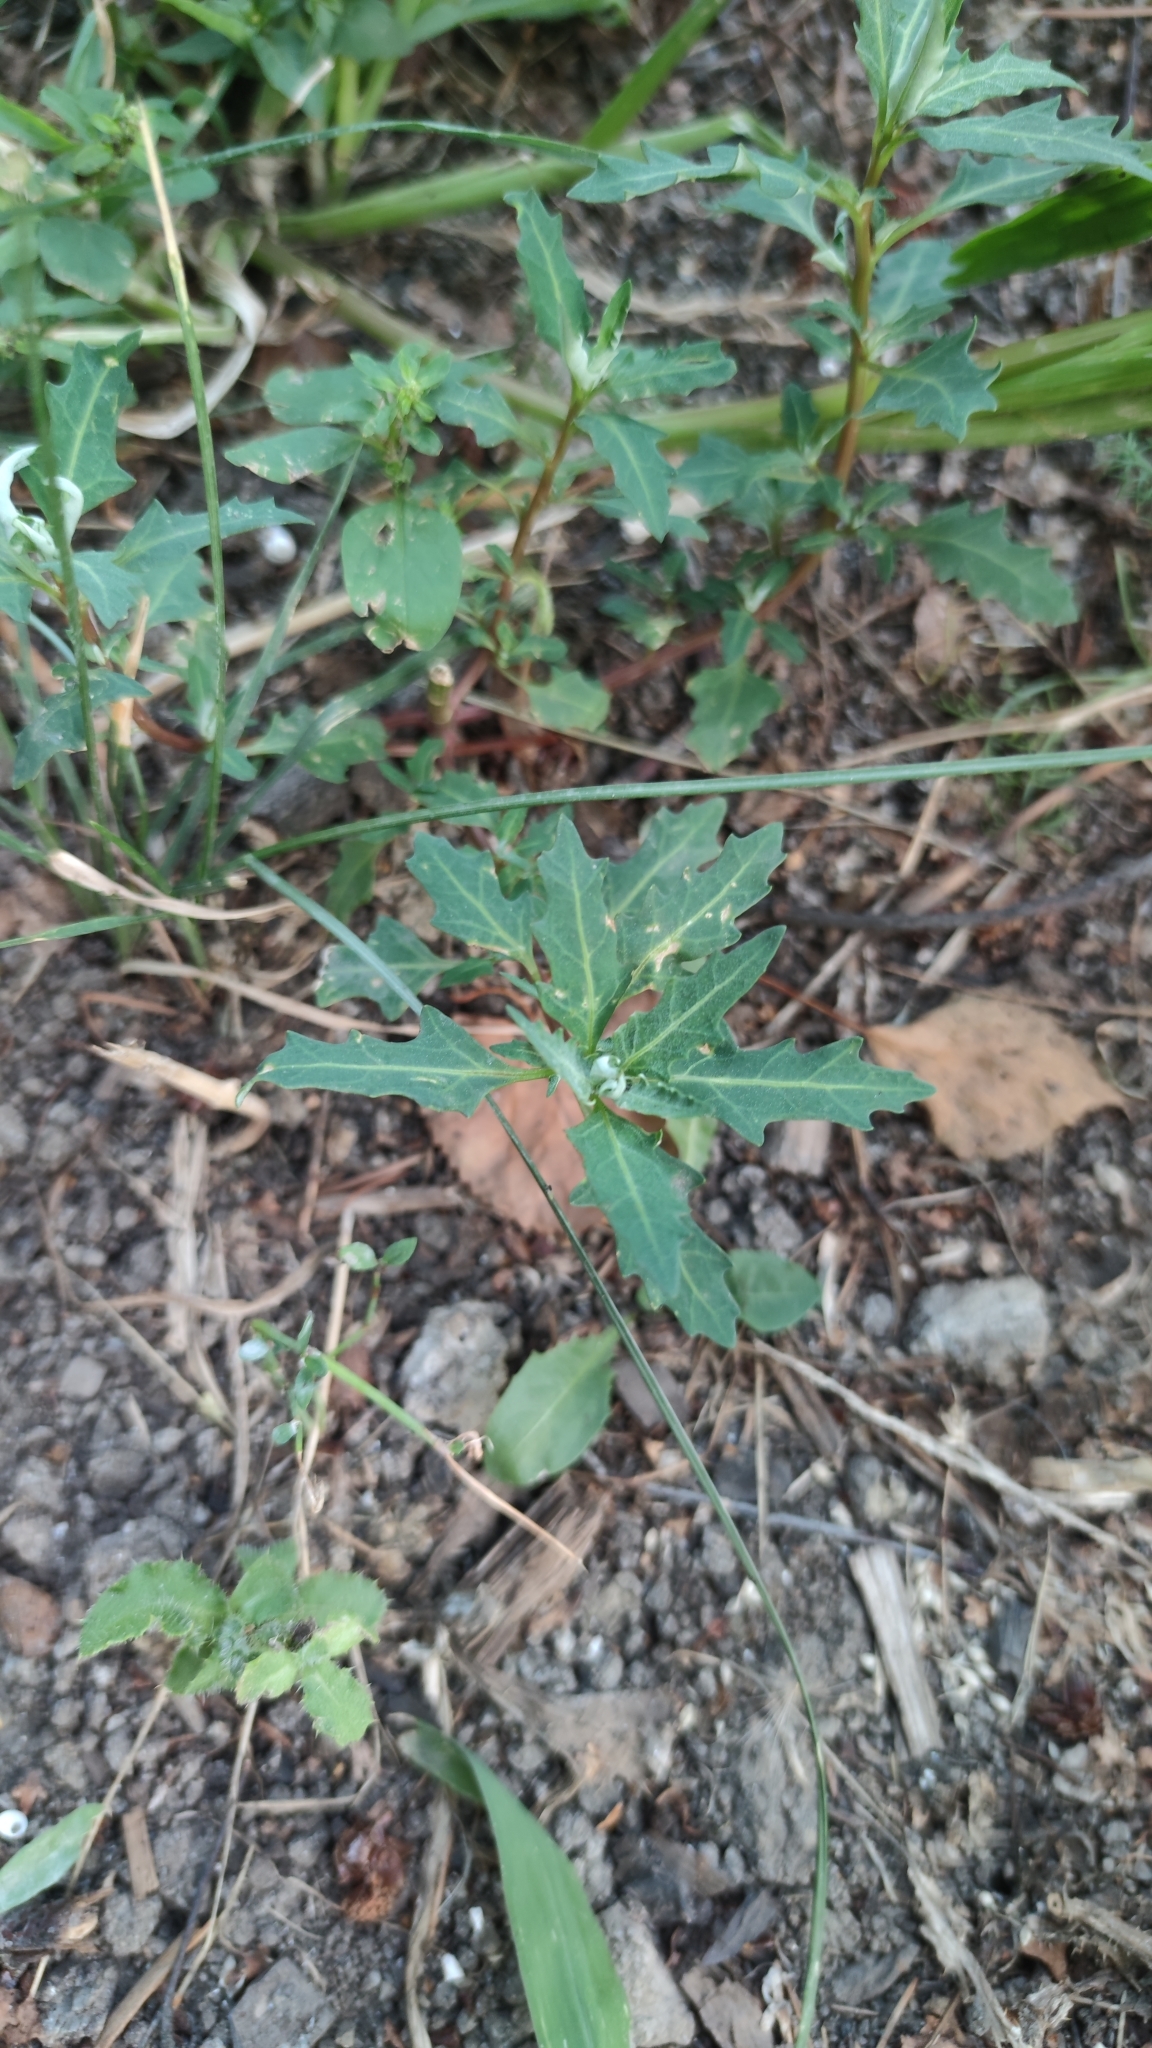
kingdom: Plantae
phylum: Tracheophyta
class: Magnoliopsida
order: Caryophyllales
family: Amaranthaceae
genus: Oxybasis
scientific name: Oxybasis glauca
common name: Glaucous goosefoot
